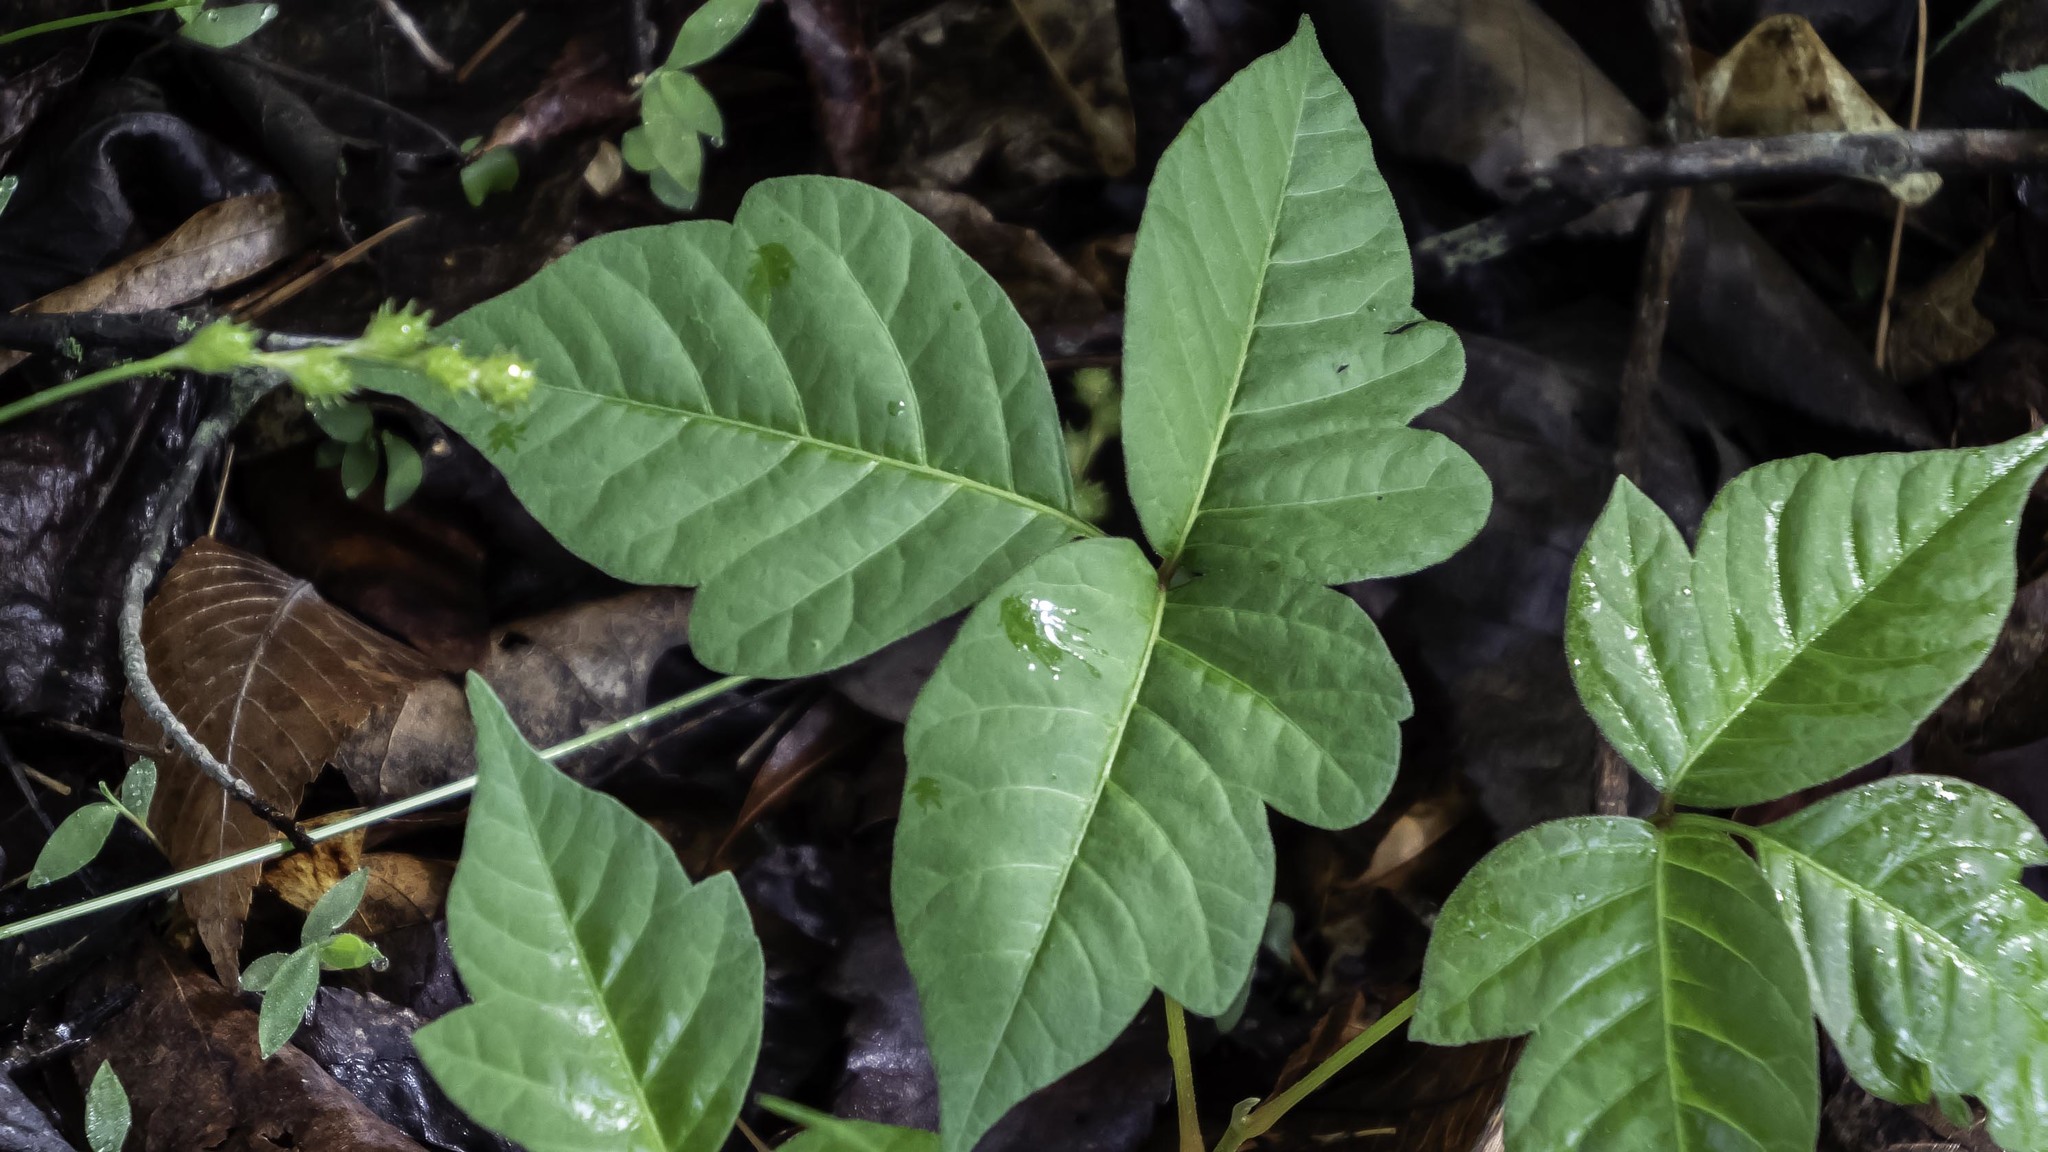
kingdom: Plantae
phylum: Tracheophyta
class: Magnoliopsida
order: Sapindales
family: Anacardiaceae
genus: Toxicodendron
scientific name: Toxicodendron radicans
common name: Poison ivy
